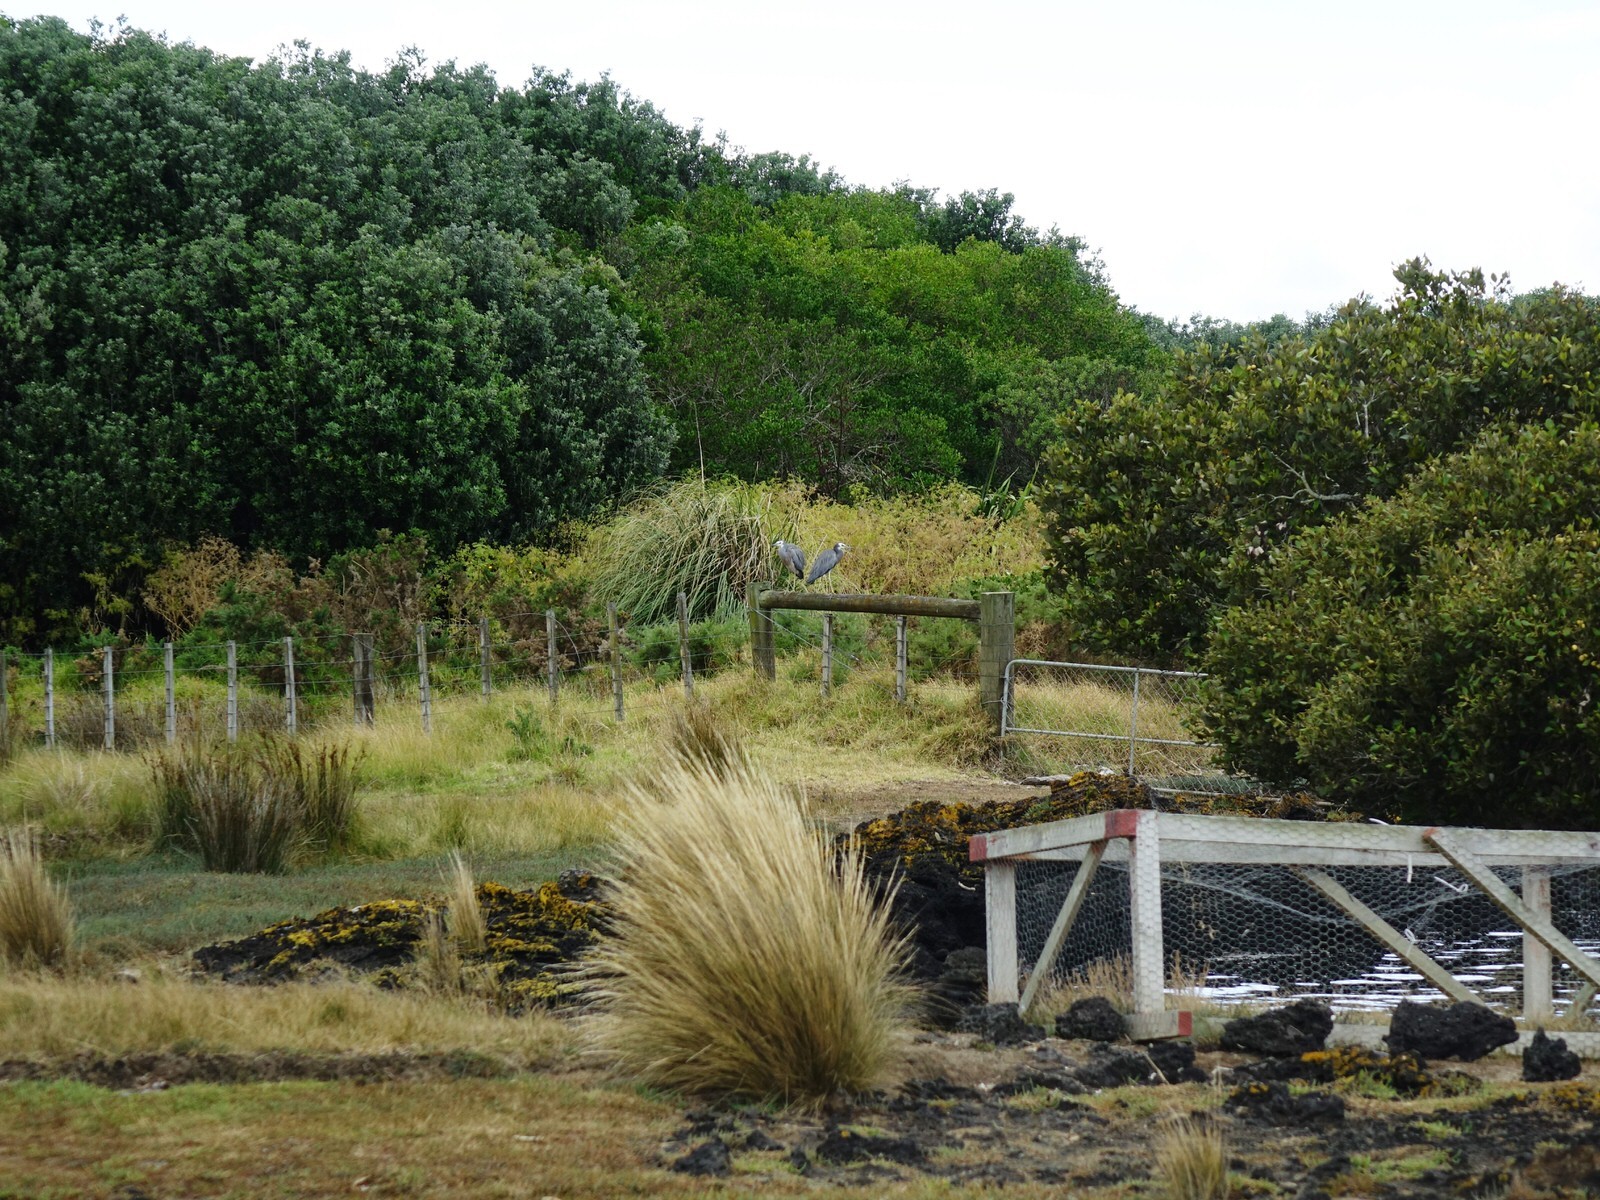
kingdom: Animalia
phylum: Chordata
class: Aves
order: Pelecaniformes
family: Ardeidae
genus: Egretta
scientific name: Egretta novaehollandiae
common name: White-faced heron
